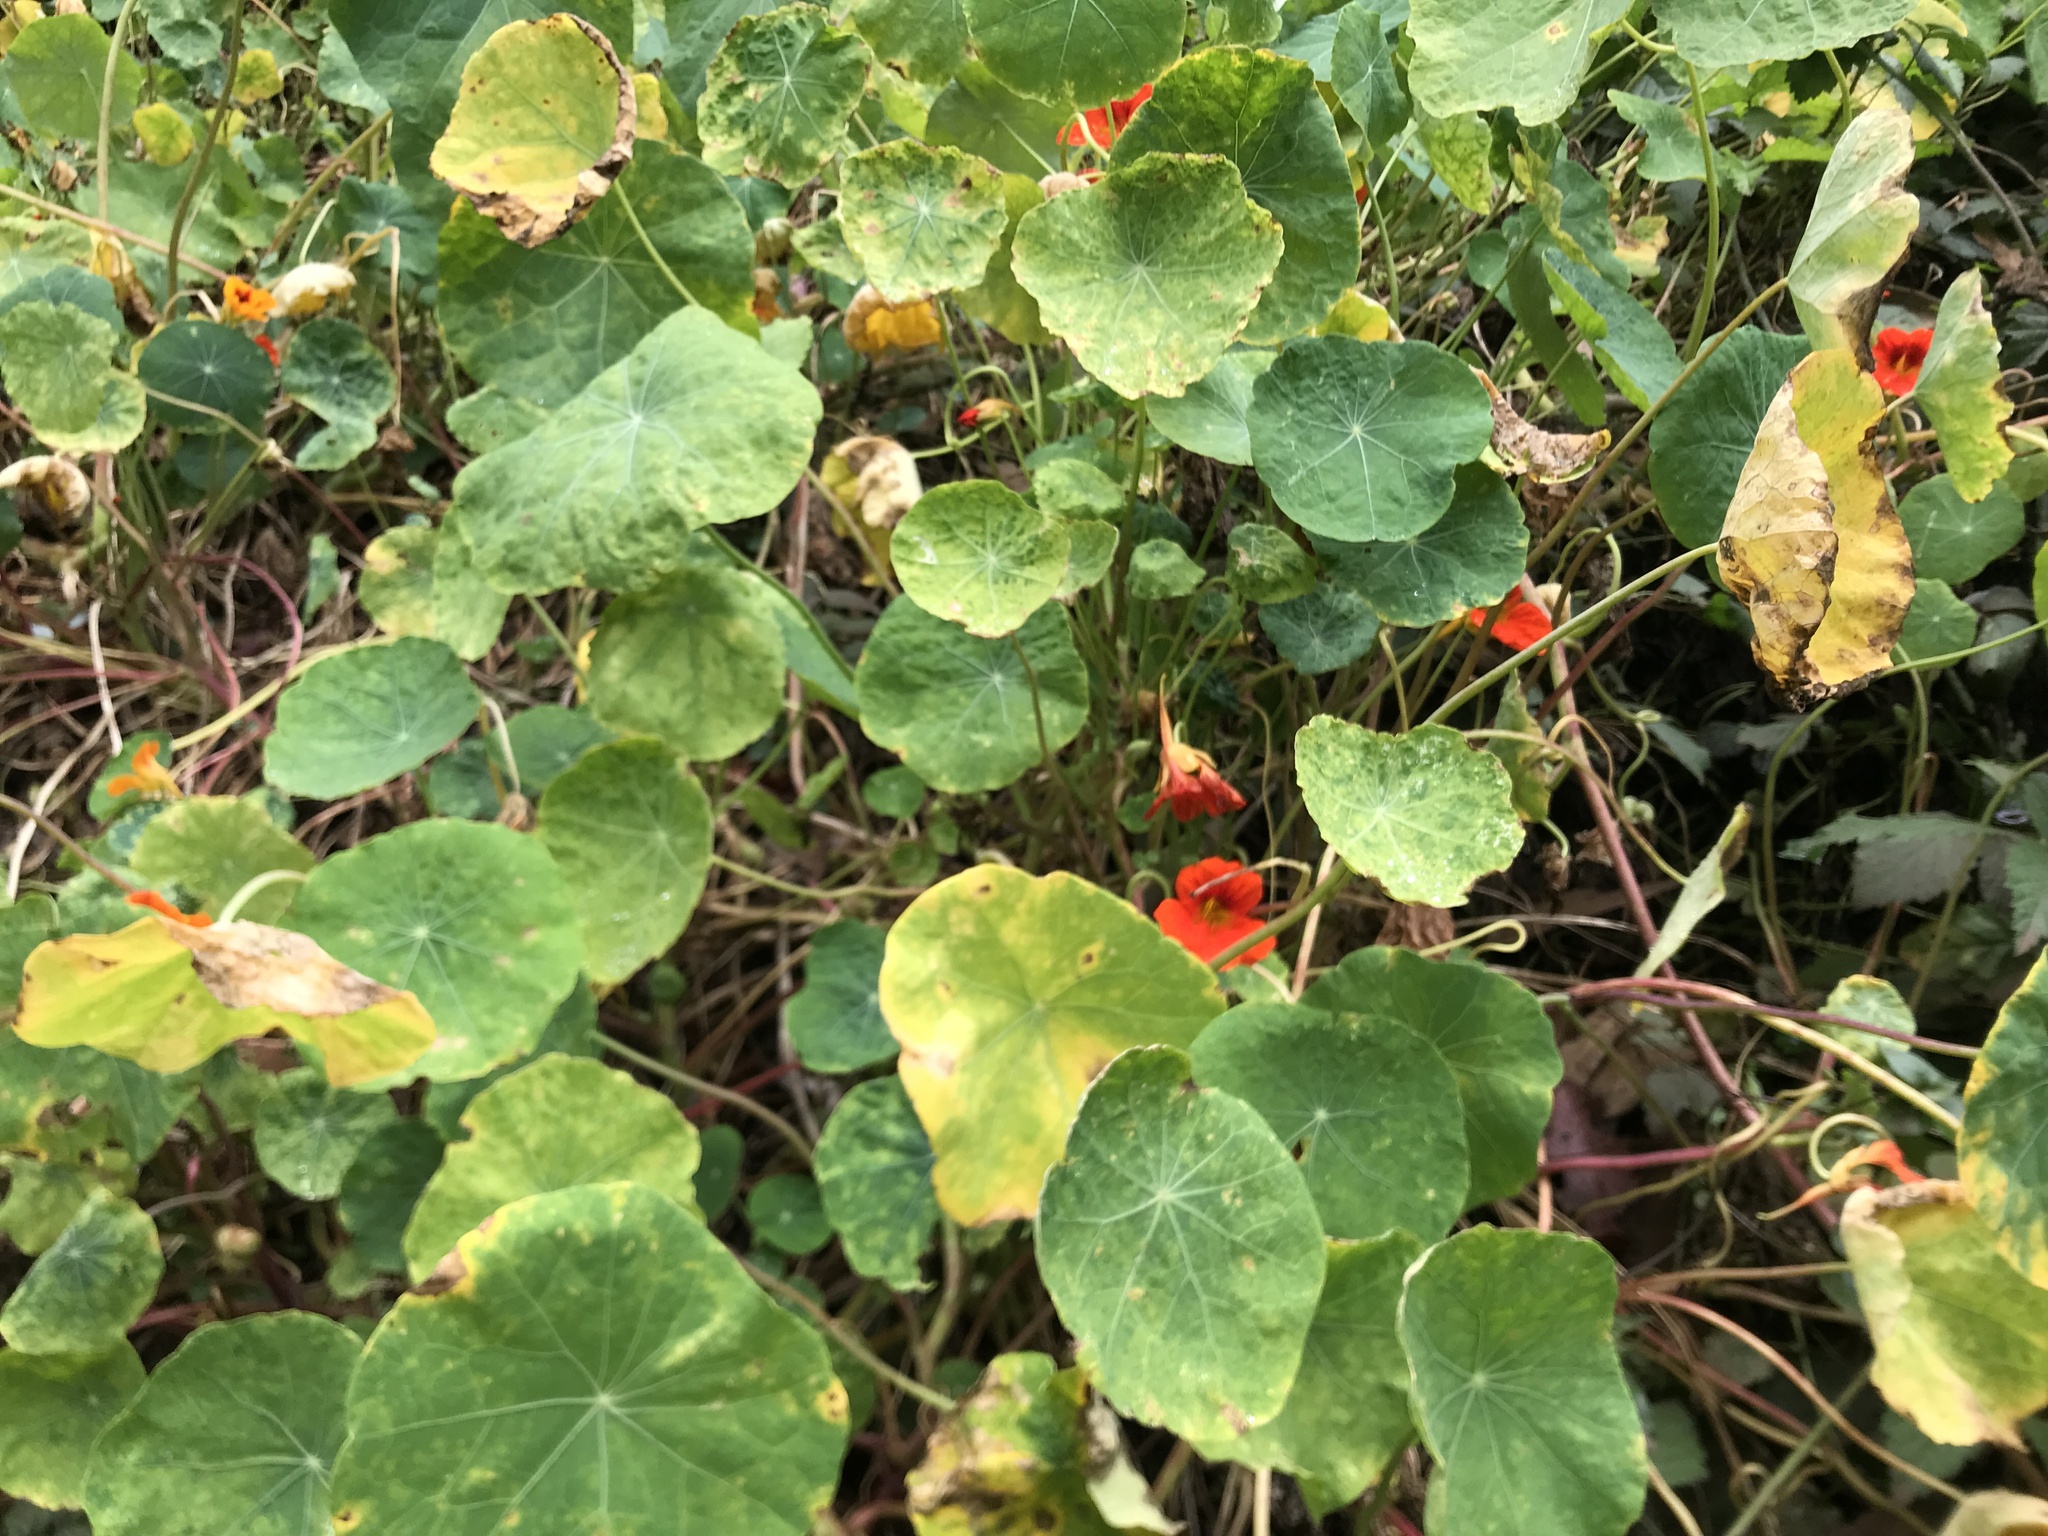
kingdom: Plantae
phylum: Tracheophyta
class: Magnoliopsida
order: Brassicales
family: Tropaeolaceae
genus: Tropaeolum
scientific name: Tropaeolum majus
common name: Nasturtium
